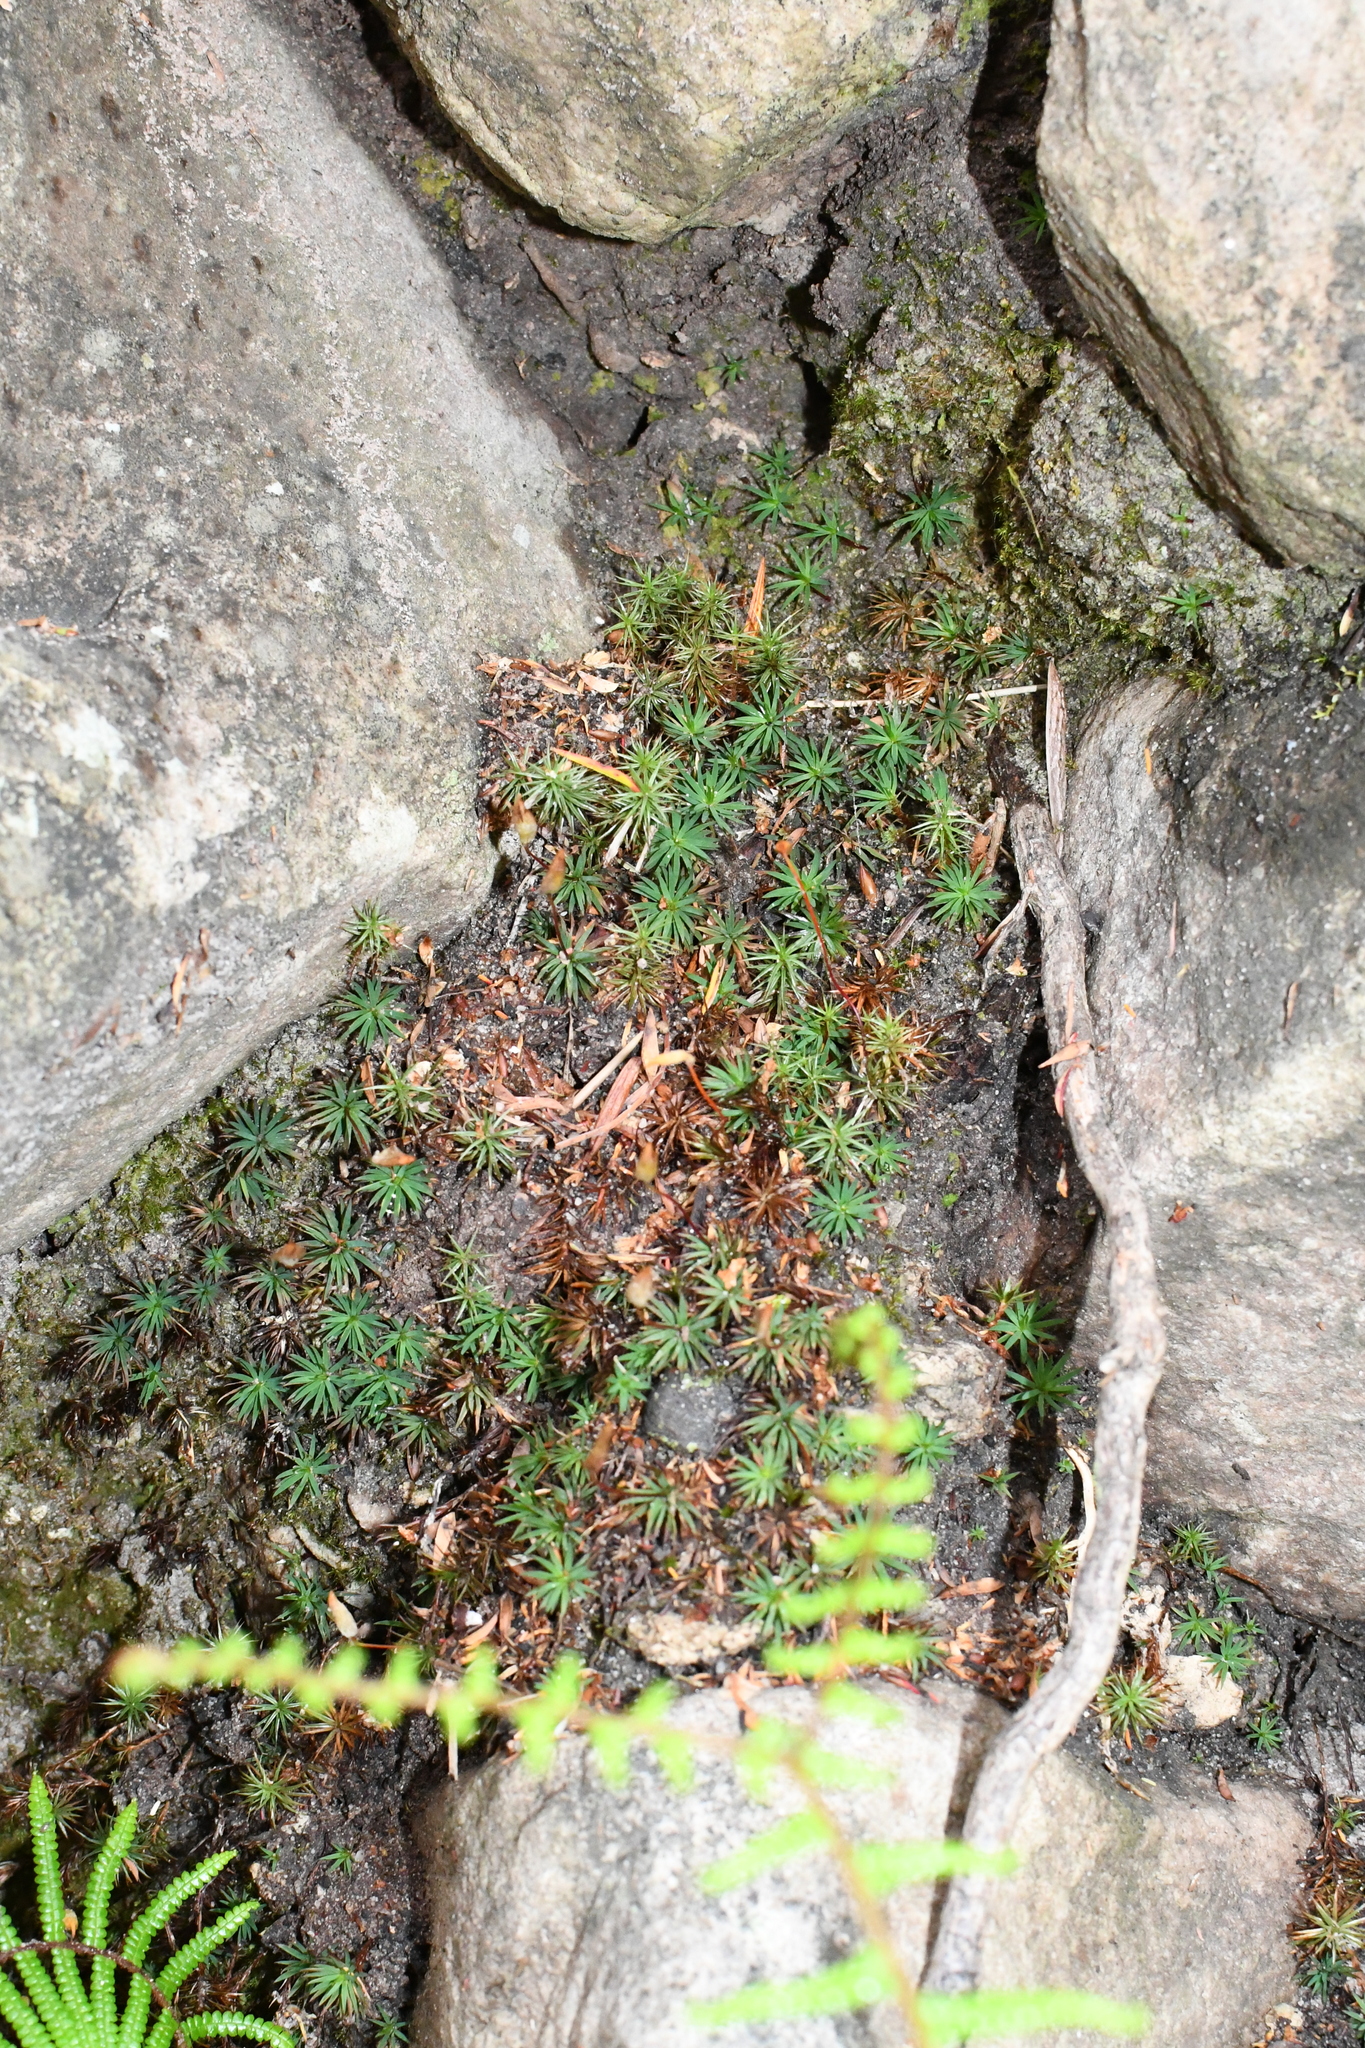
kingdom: Plantae
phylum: Bryophyta
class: Polytrichopsida
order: Polytrichales
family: Polytrichaceae
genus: Dawsonia
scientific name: Dawsonia longiseta
